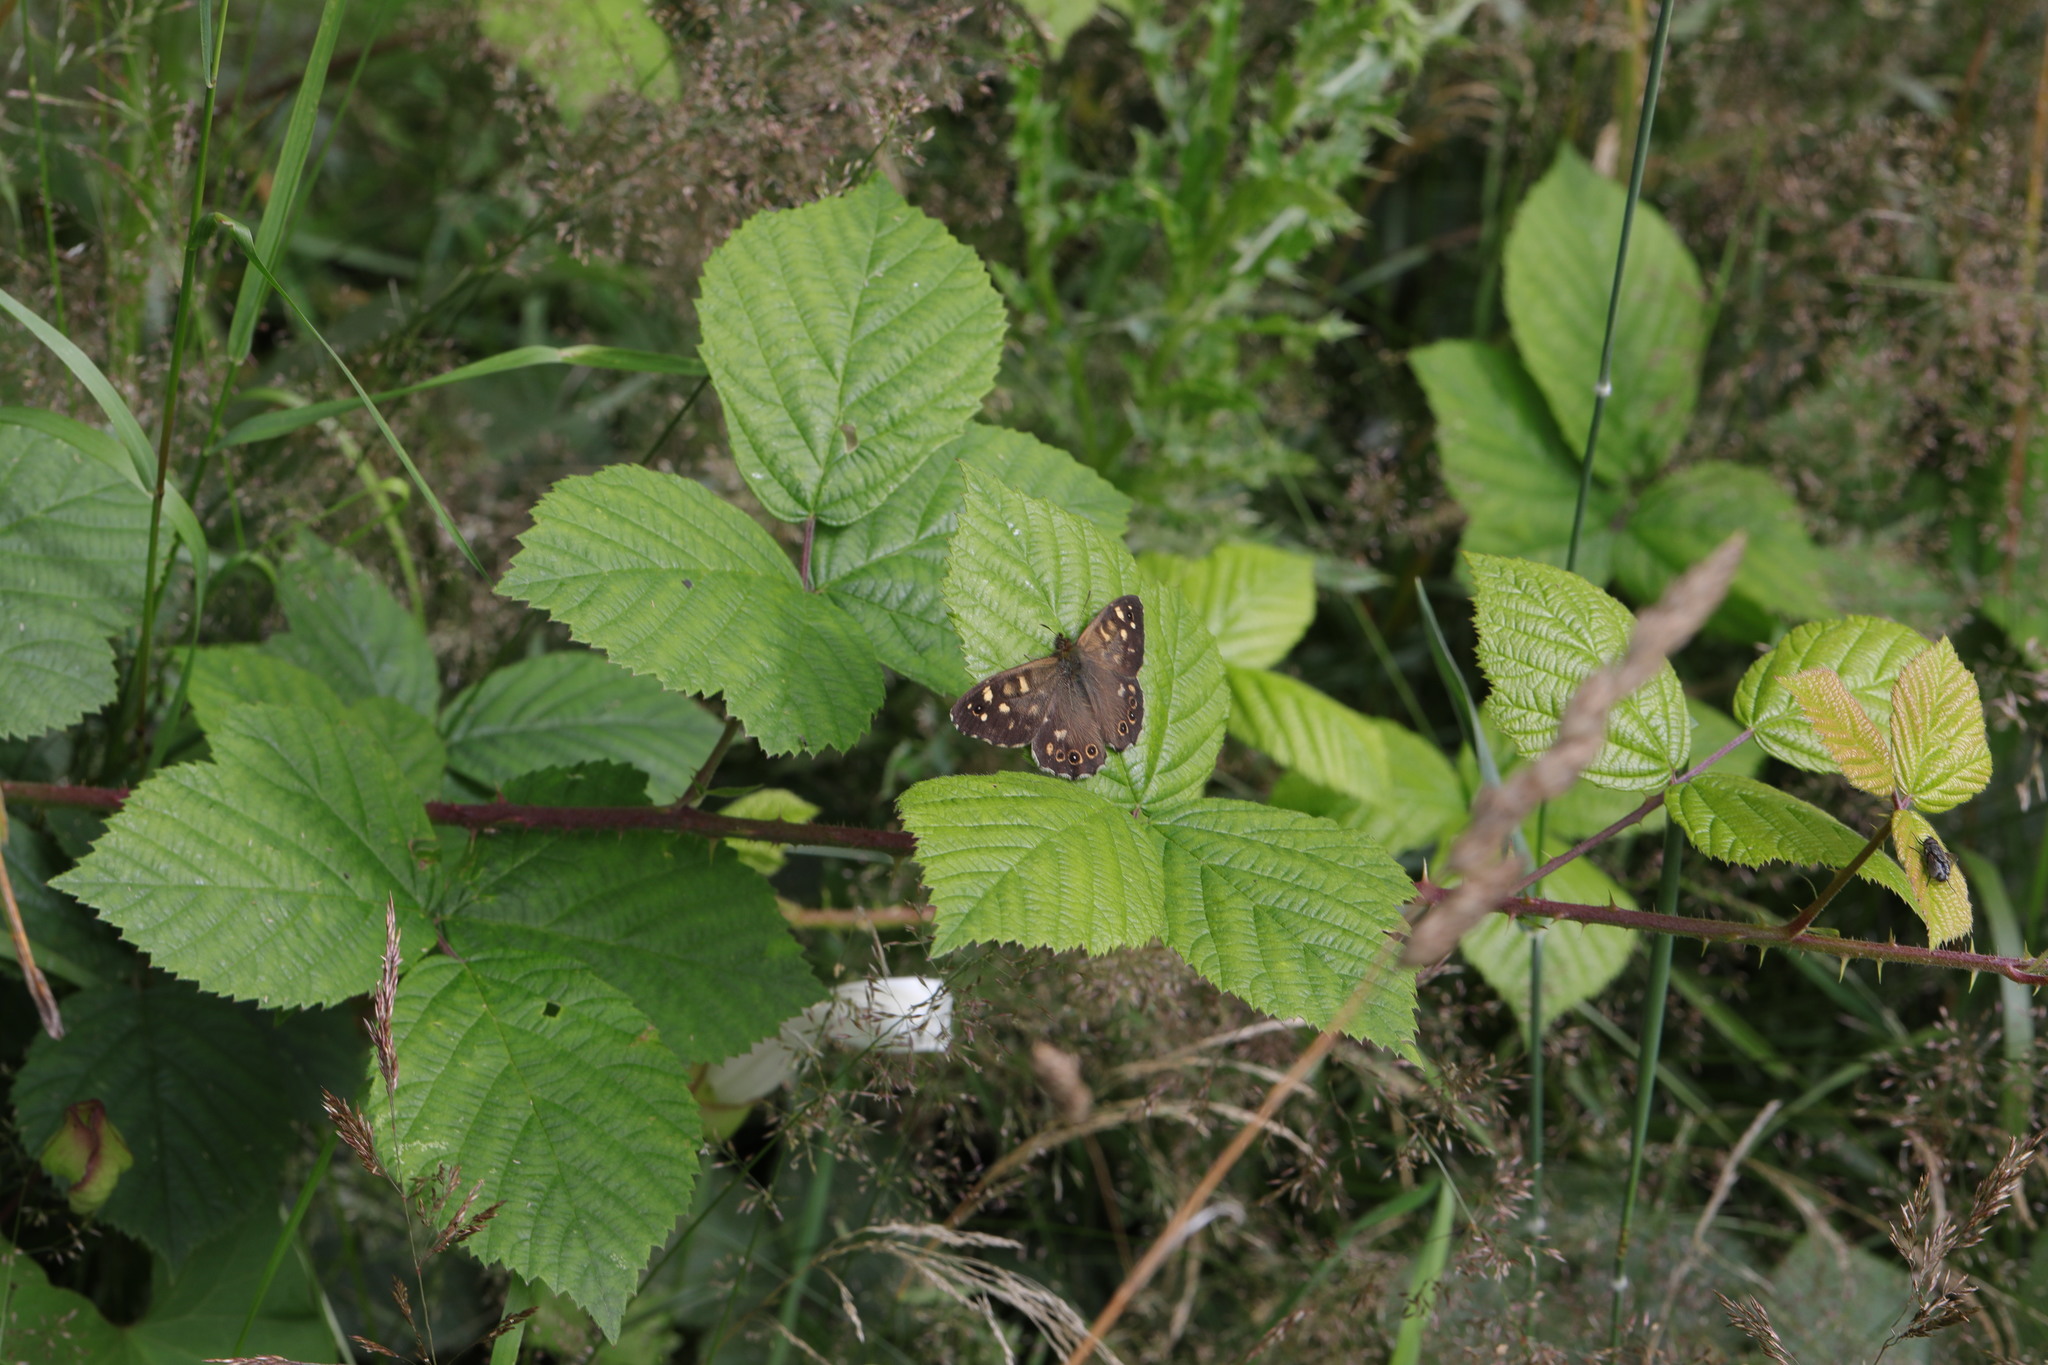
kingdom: Animalia
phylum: Arthropoda
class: Insecta
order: Lepidoptera
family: Nymphalidae
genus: Pararge
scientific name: Pararge aegeria
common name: Speckled wood
